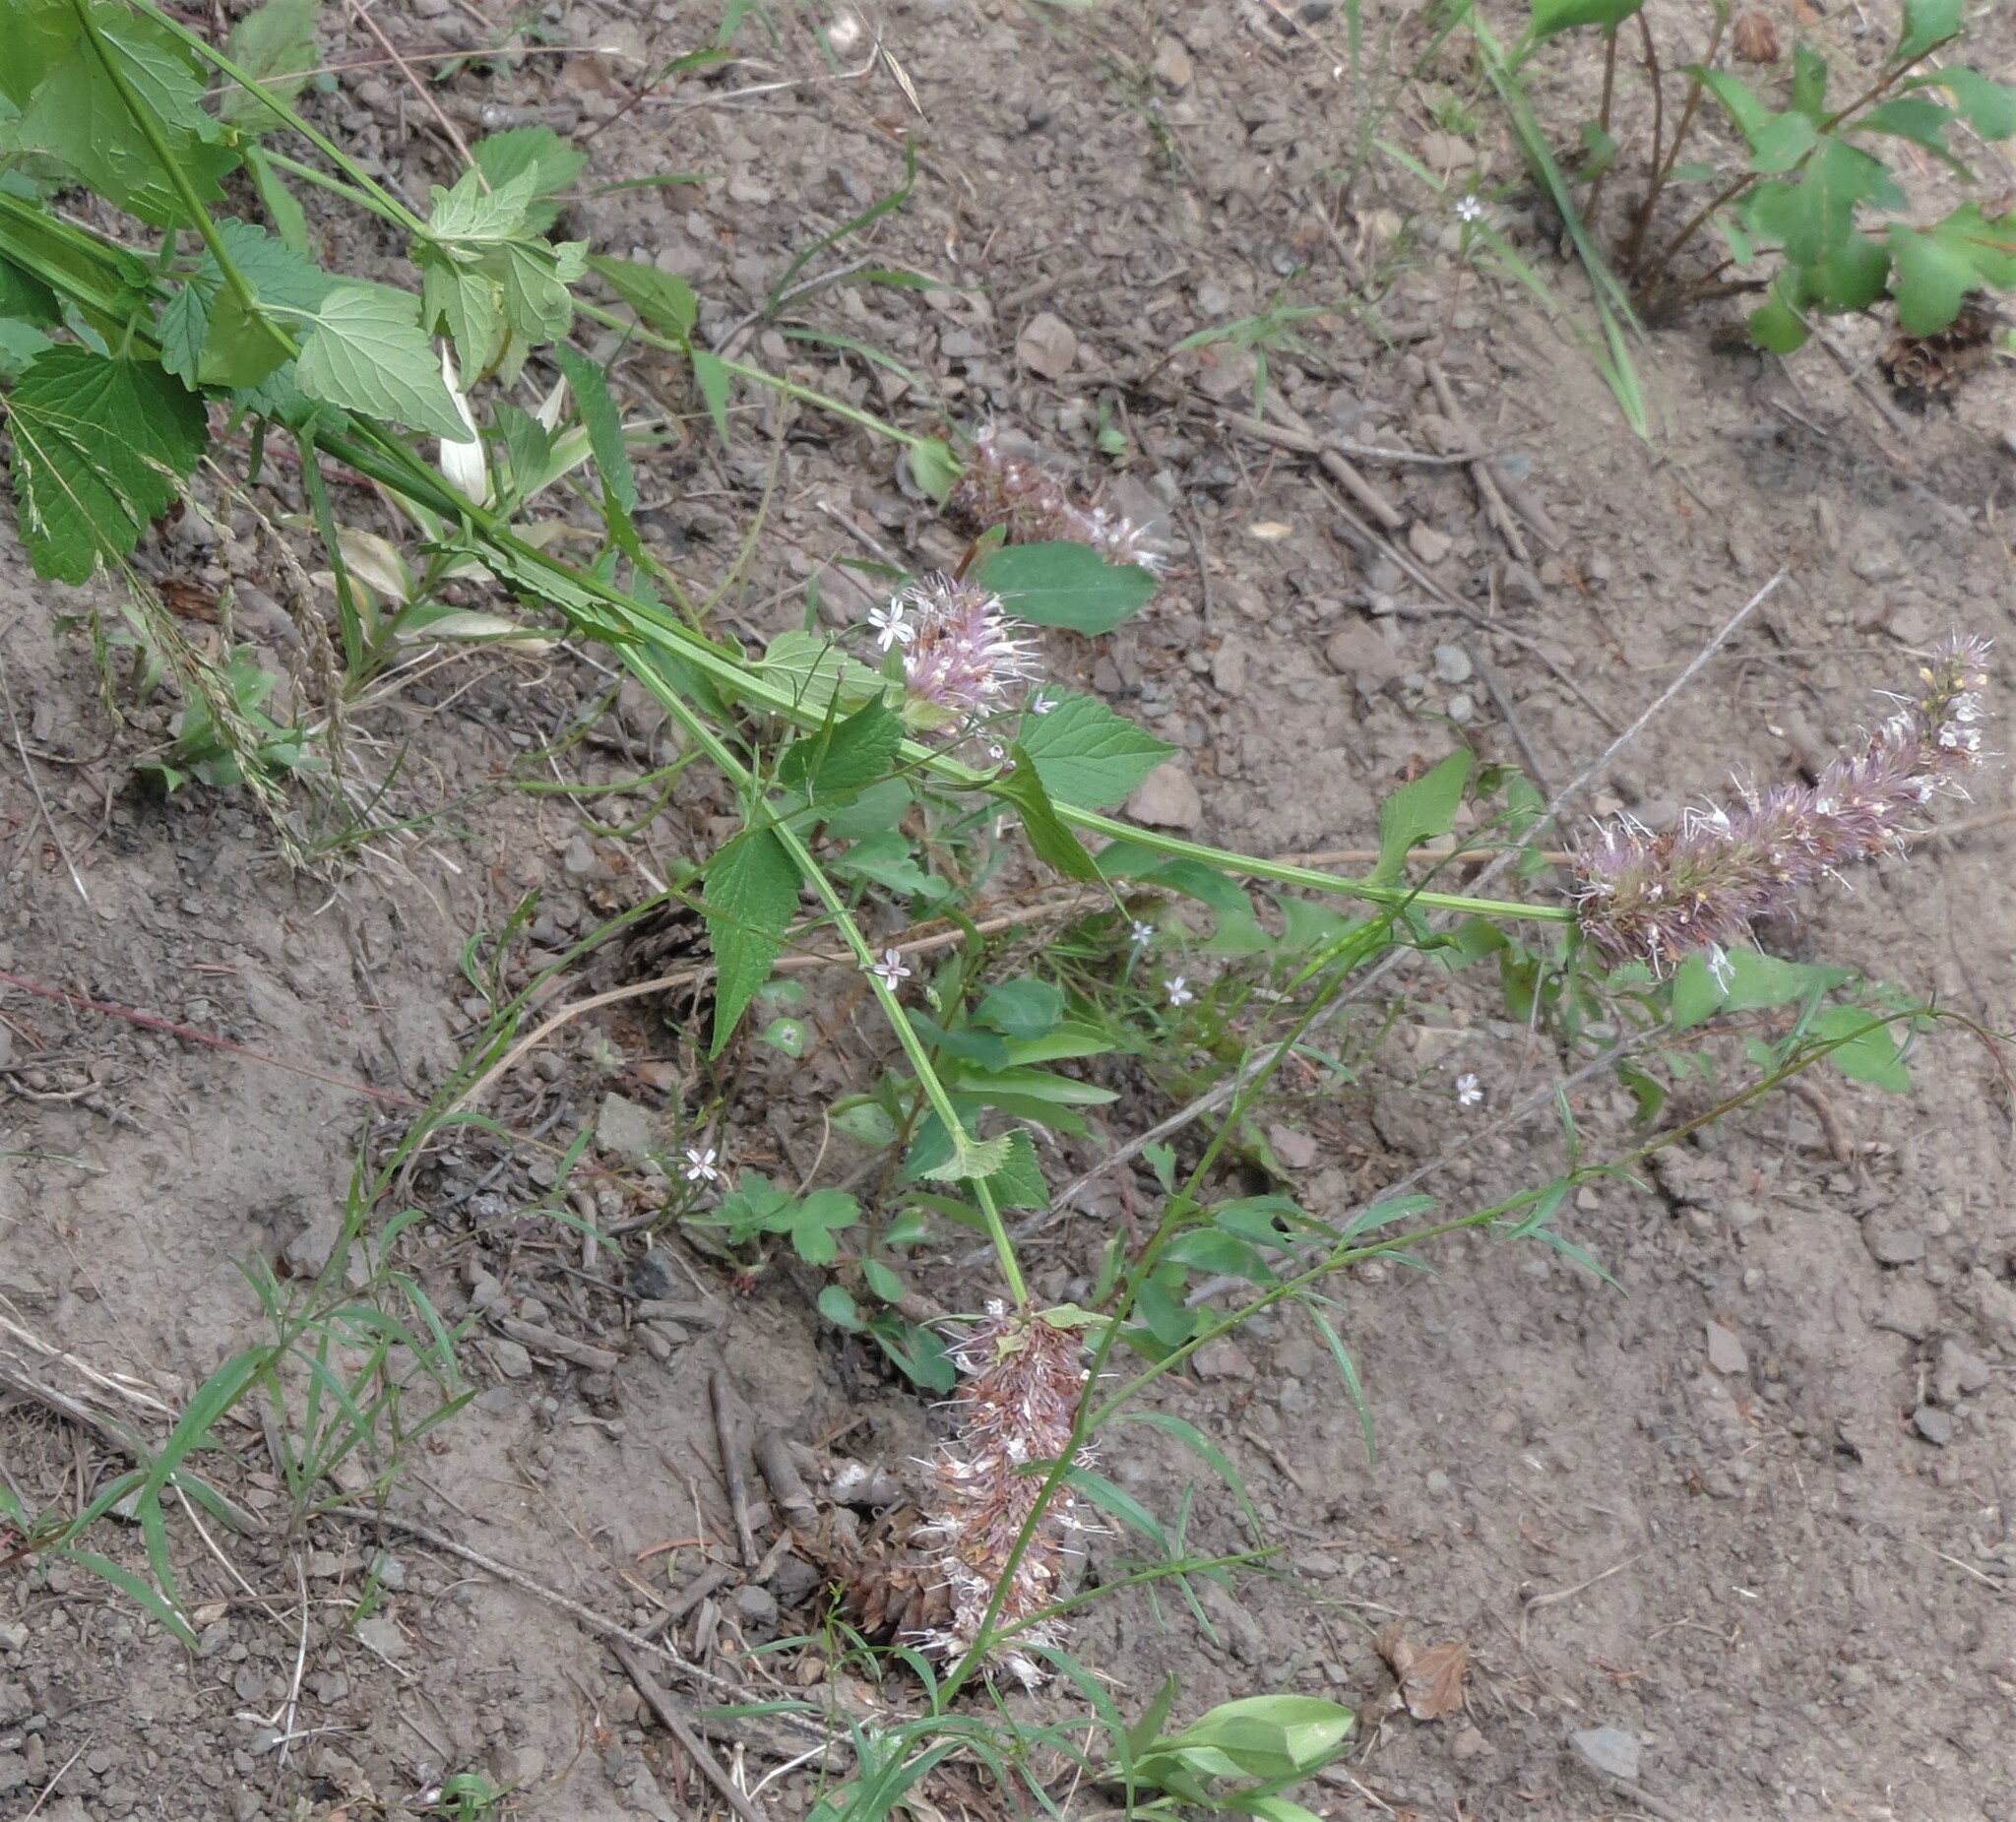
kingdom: Plantae
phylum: Tracheophyta
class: Magnoliopsida
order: Lamiales
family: Lamiaceae
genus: Agastache
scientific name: Agastache urticifolia
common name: Horsemint giant hyssop
